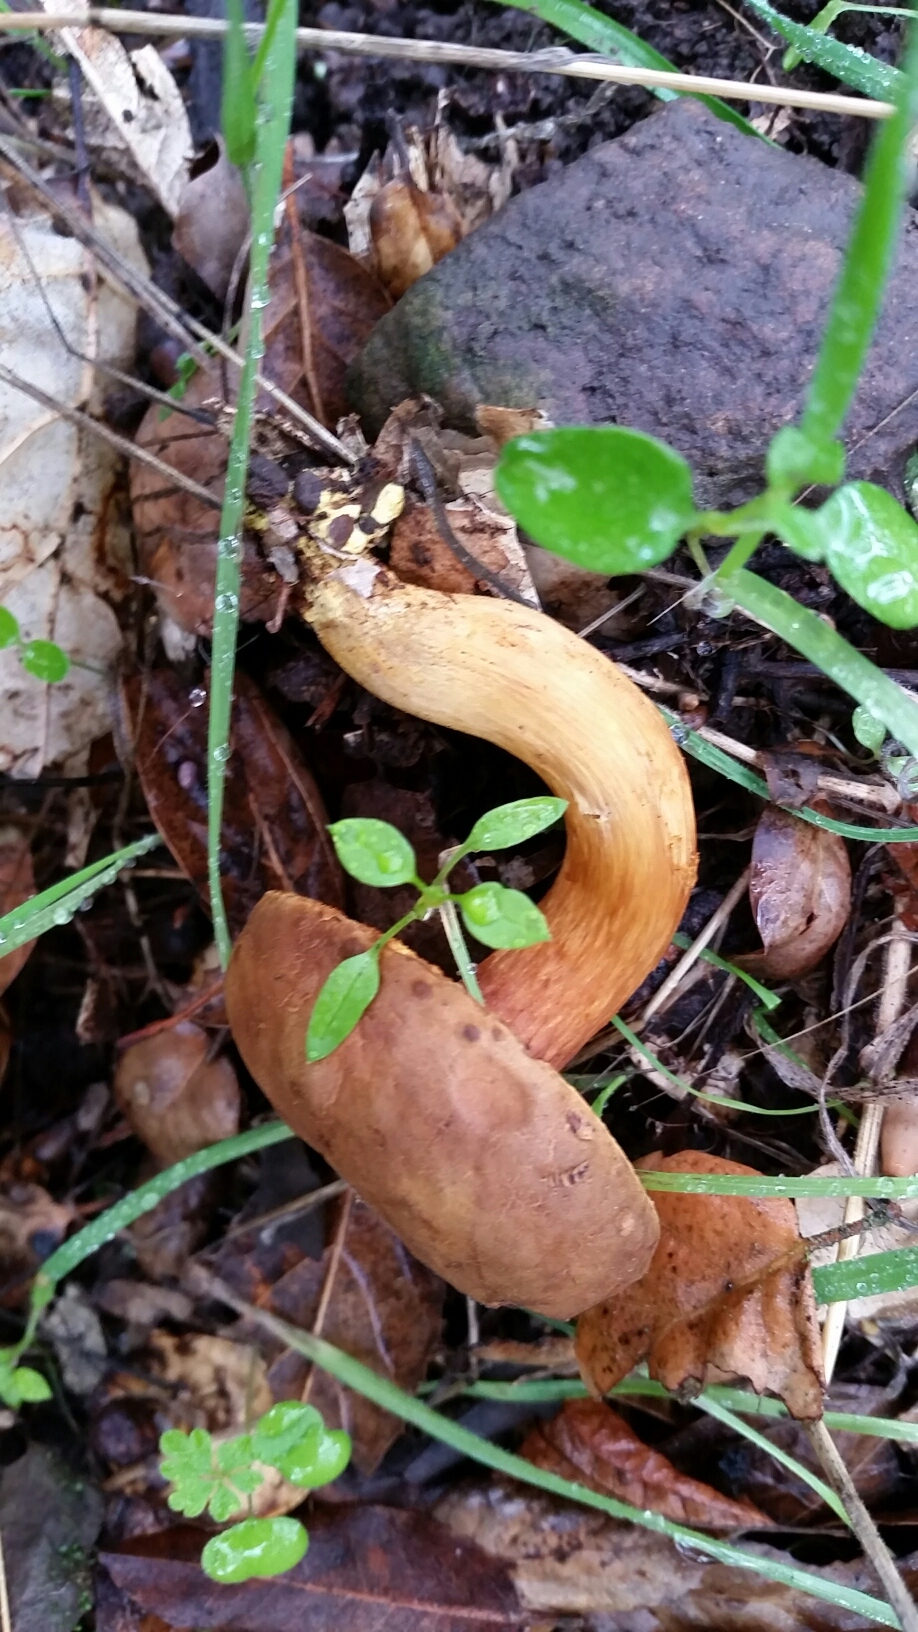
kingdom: Fungi
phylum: Basidiomycota
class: Agaricomycetes
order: Boletales
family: Boletaceae
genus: Xerocomus
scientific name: Xerocomus subtomentosus
